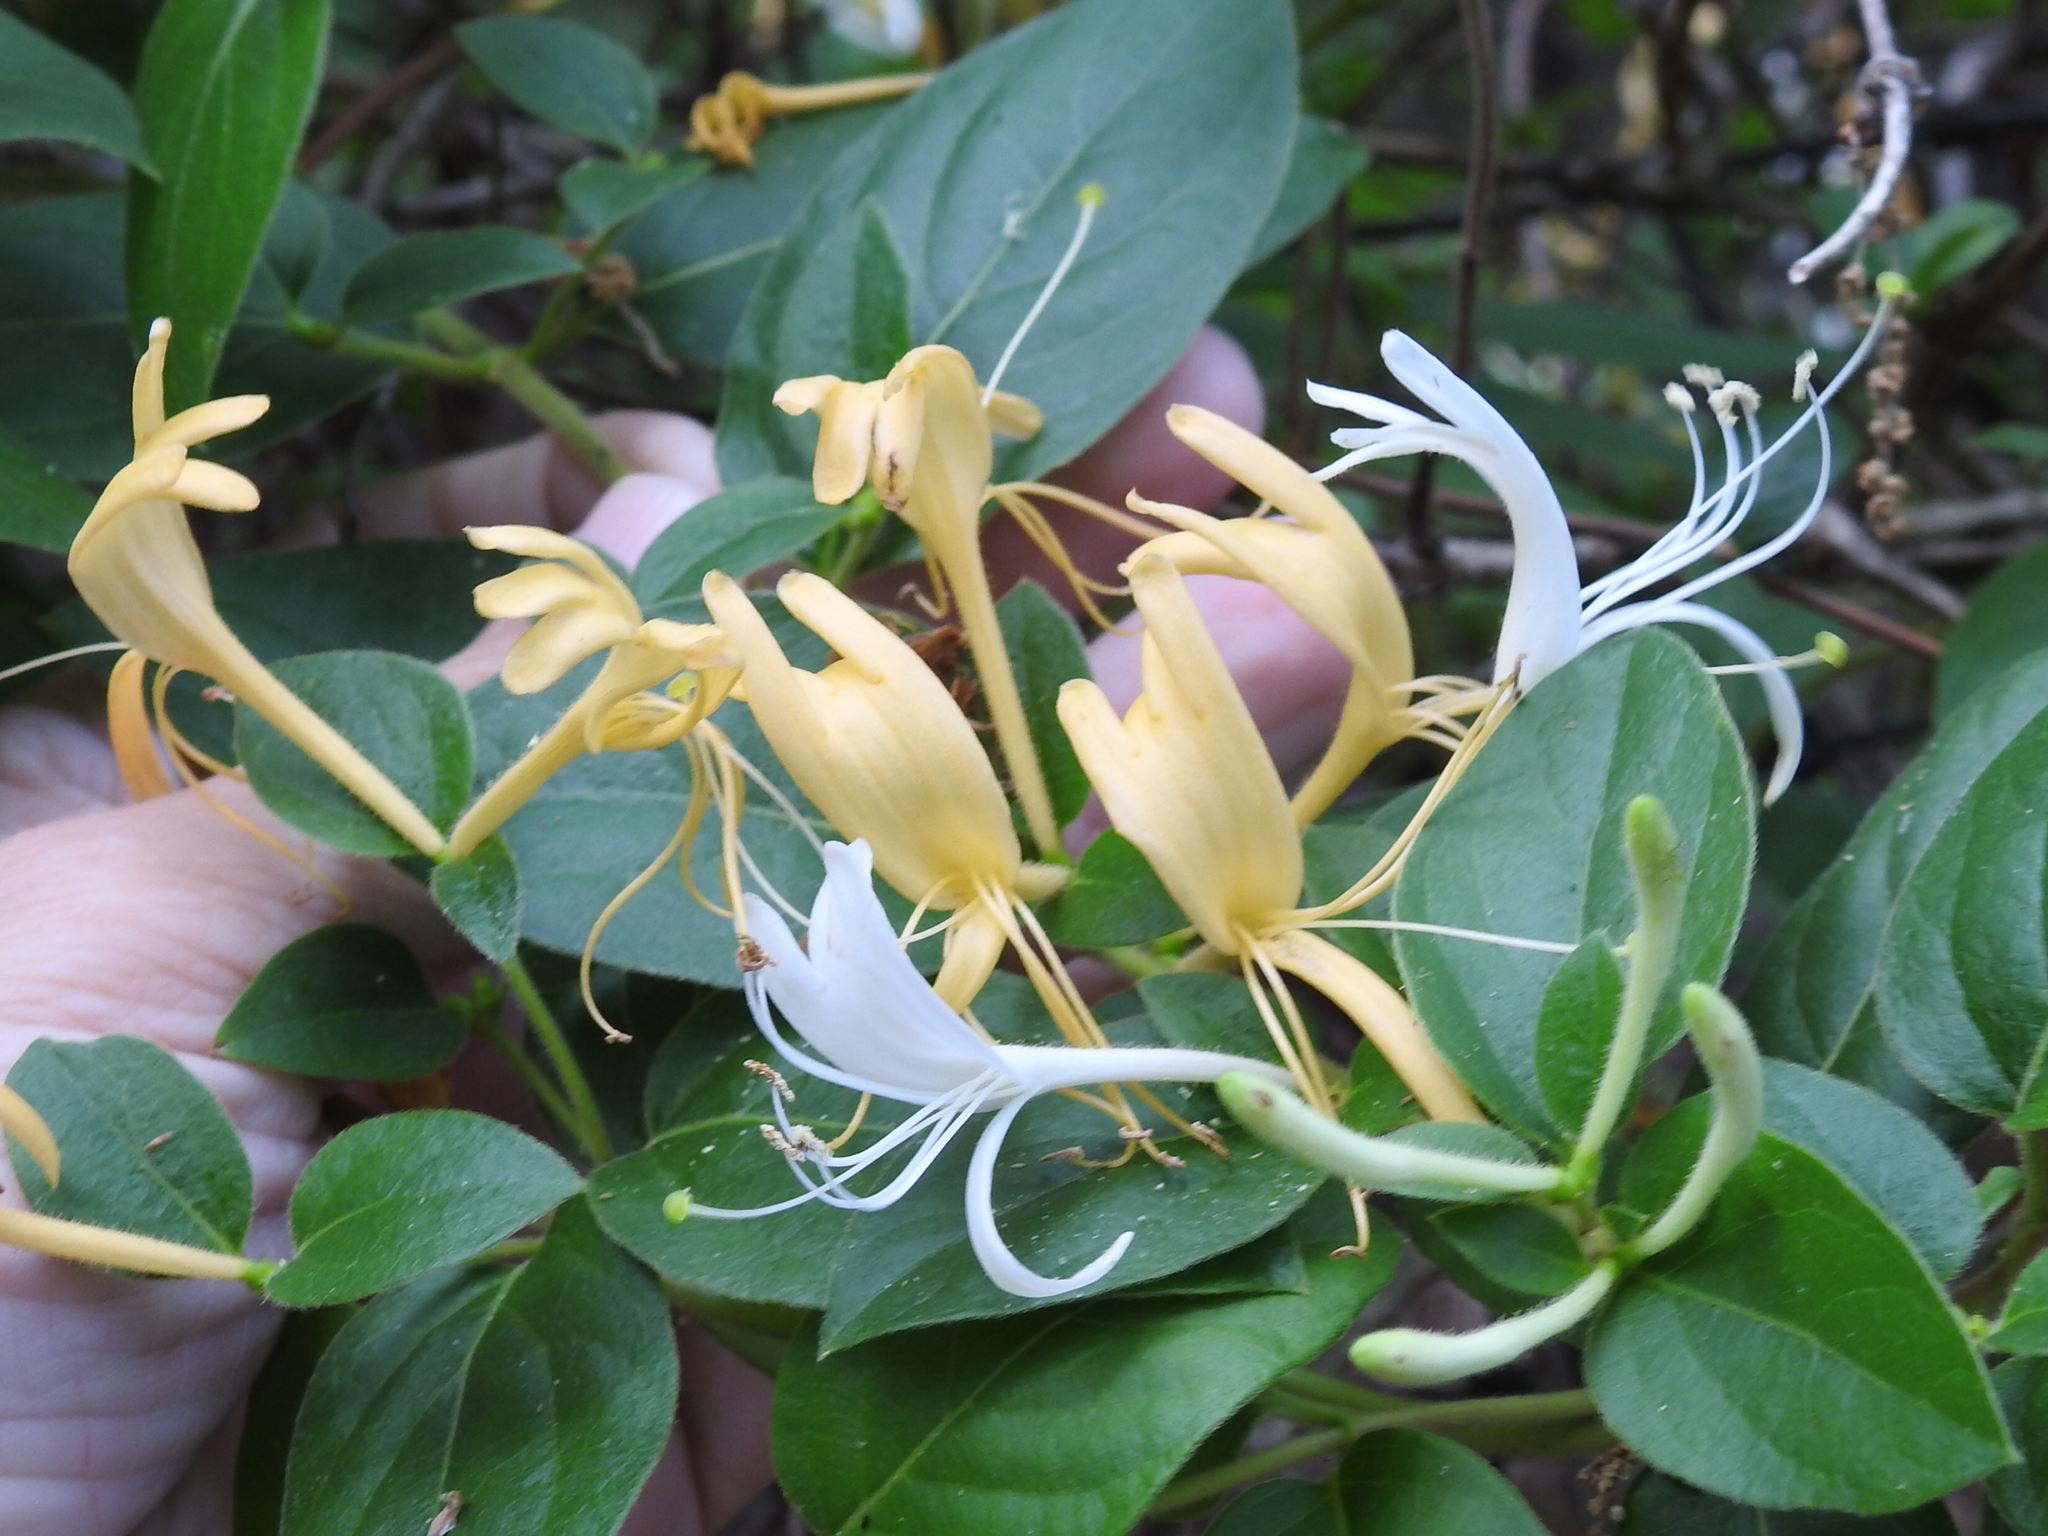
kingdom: Plantae
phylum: Tracheophyta
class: Magnoliopsida
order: Dipsacales
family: Caprifoliaceae
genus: Lonicera
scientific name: Lonicera japonica
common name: Japanese honeysuckle
